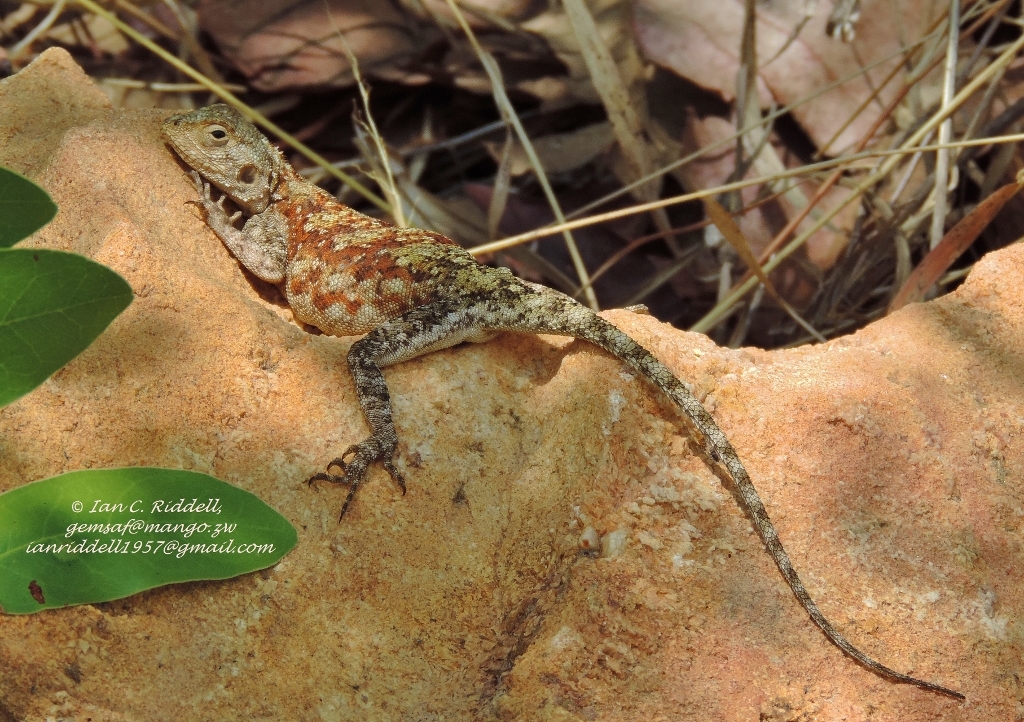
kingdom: Animalia
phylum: Chordata
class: Squamata
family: Agamidae
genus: Agama
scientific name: Agama kirkii
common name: Kirk's rock agama
